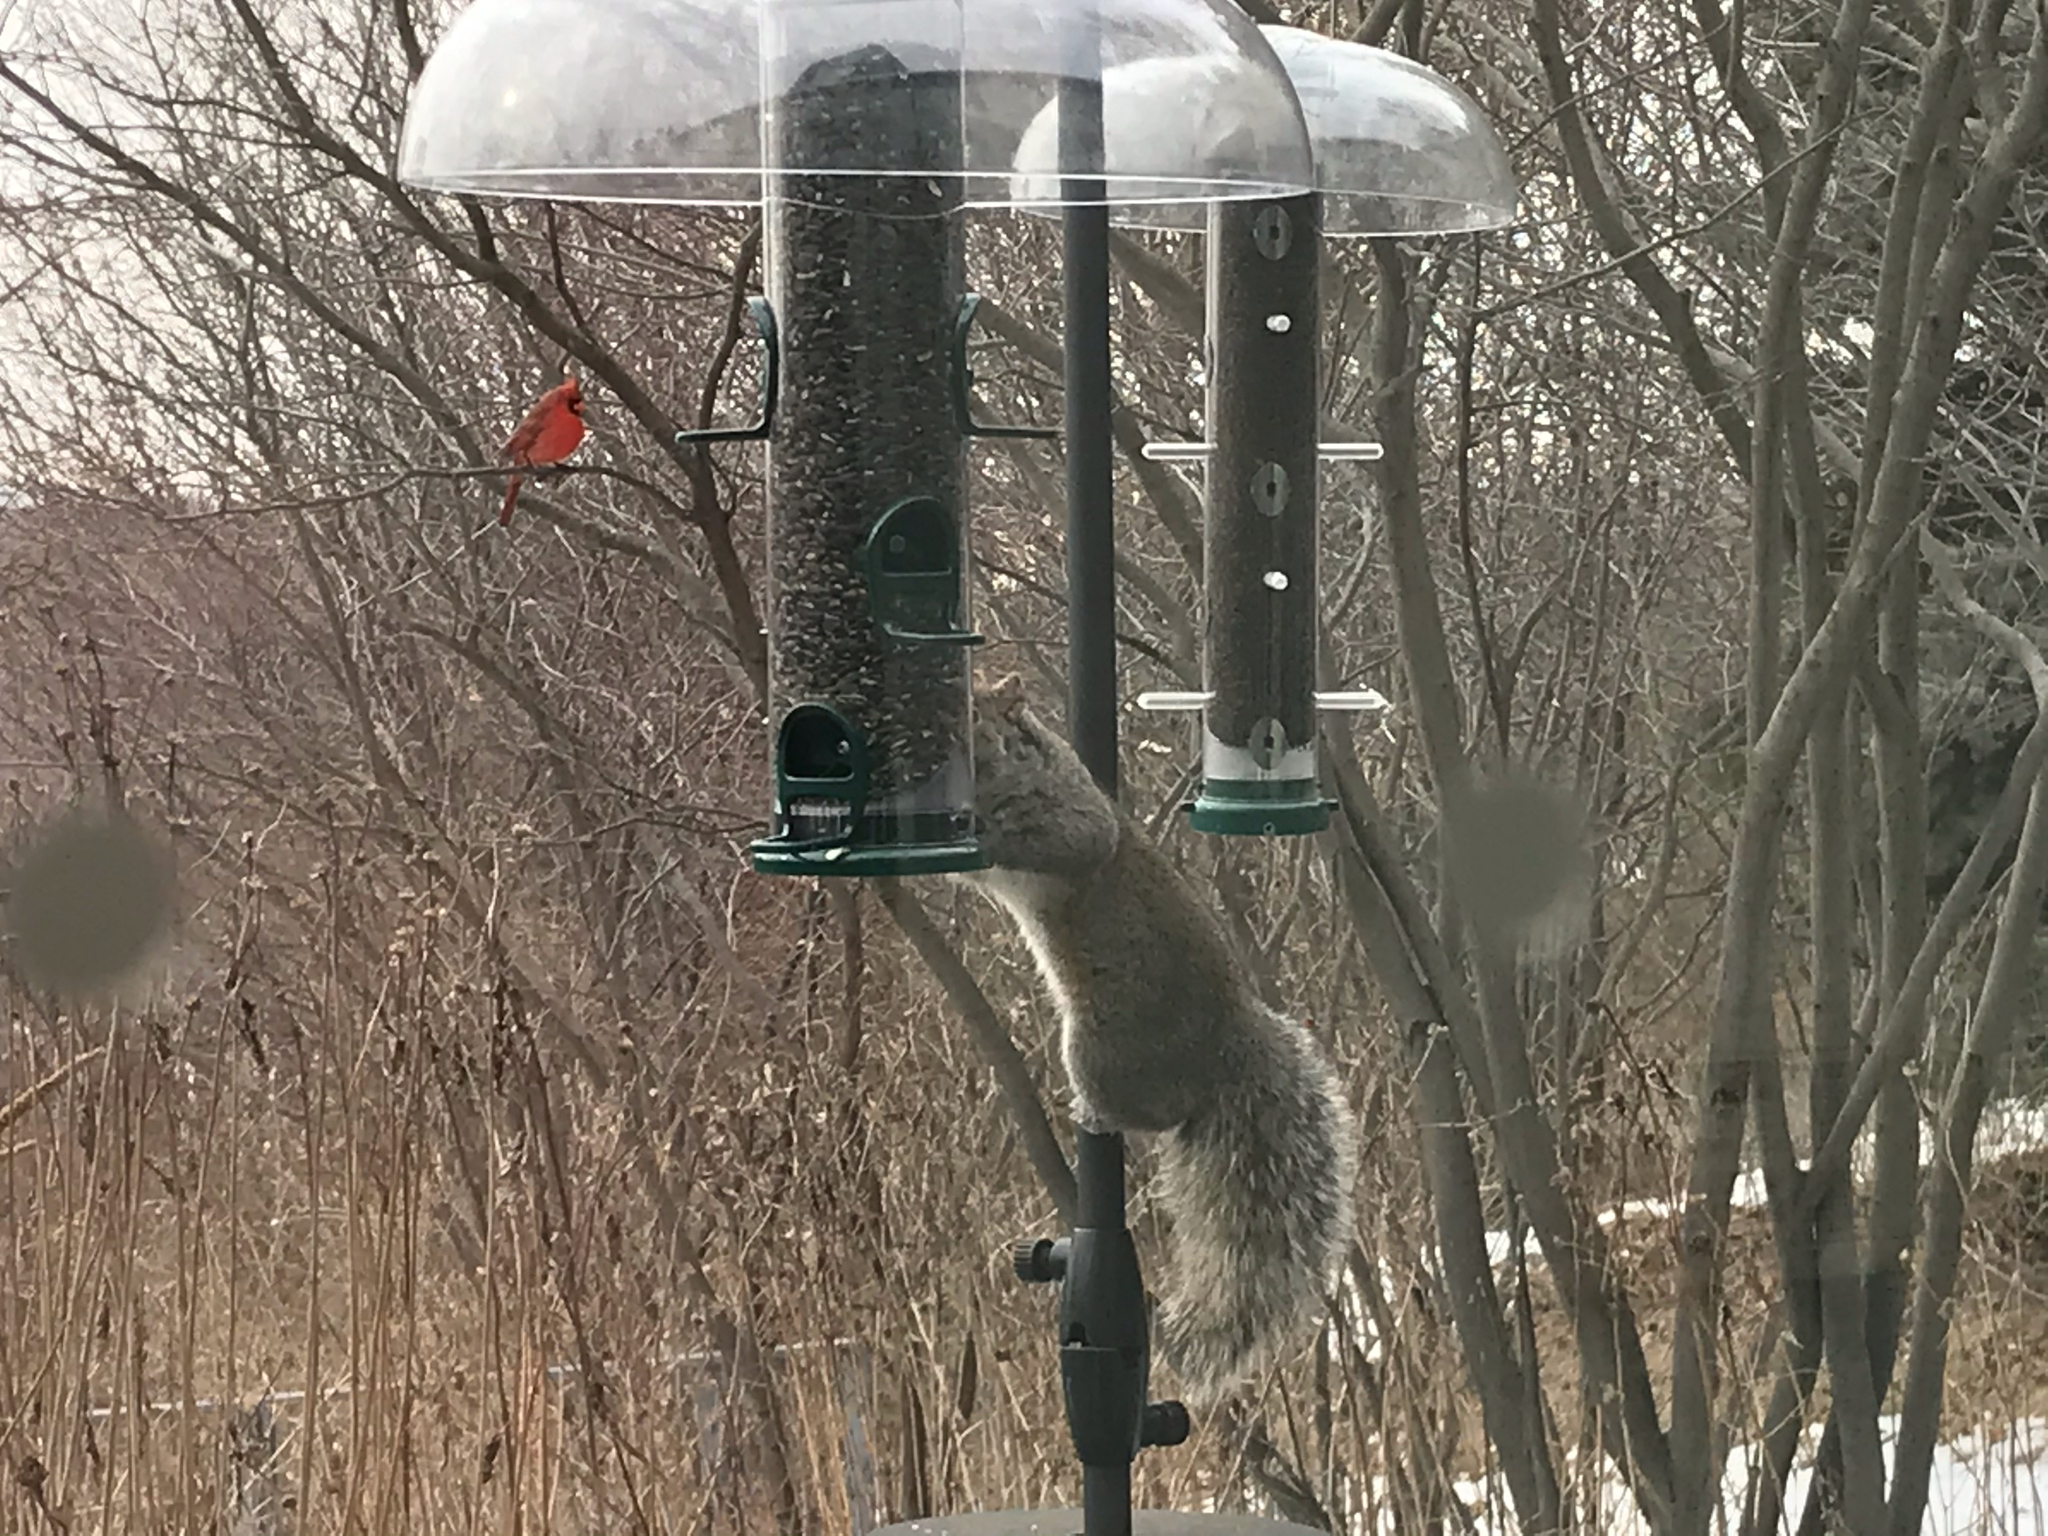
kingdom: Animalia
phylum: Chordata
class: Aves
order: Passeriformes
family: Cardinalidae
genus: Cardinalis
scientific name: Cardinalis cardinalis
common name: Northern cardinal
